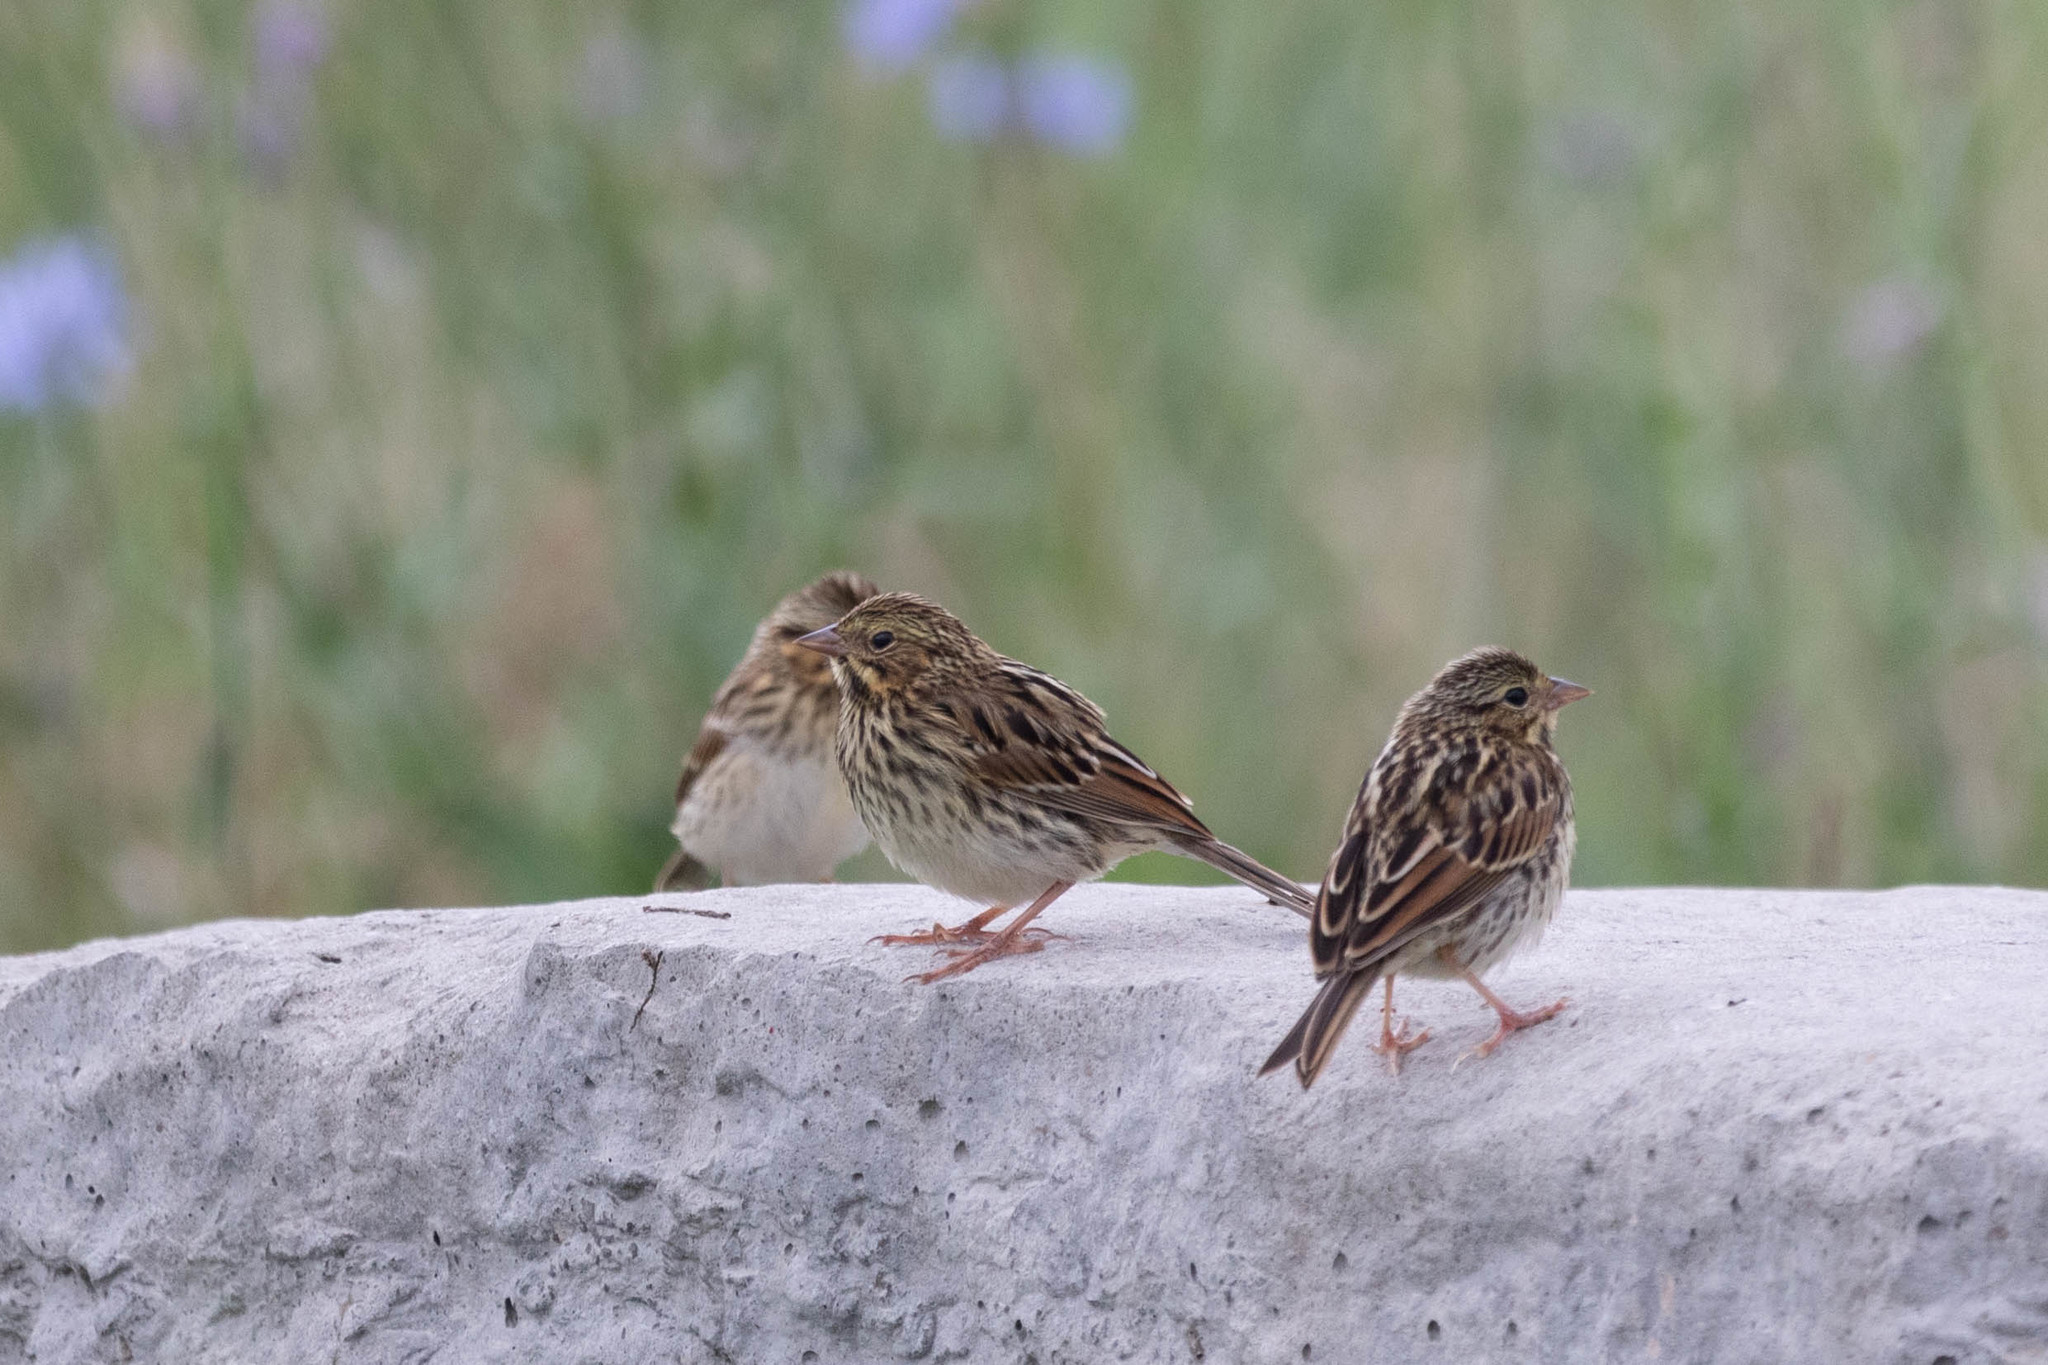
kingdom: Animalia
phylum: Chordata
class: Aves
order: Passeriformes
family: Passerellidae
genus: Passerculus
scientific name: Passerculus sandwichensis
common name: Savannah sparrow
